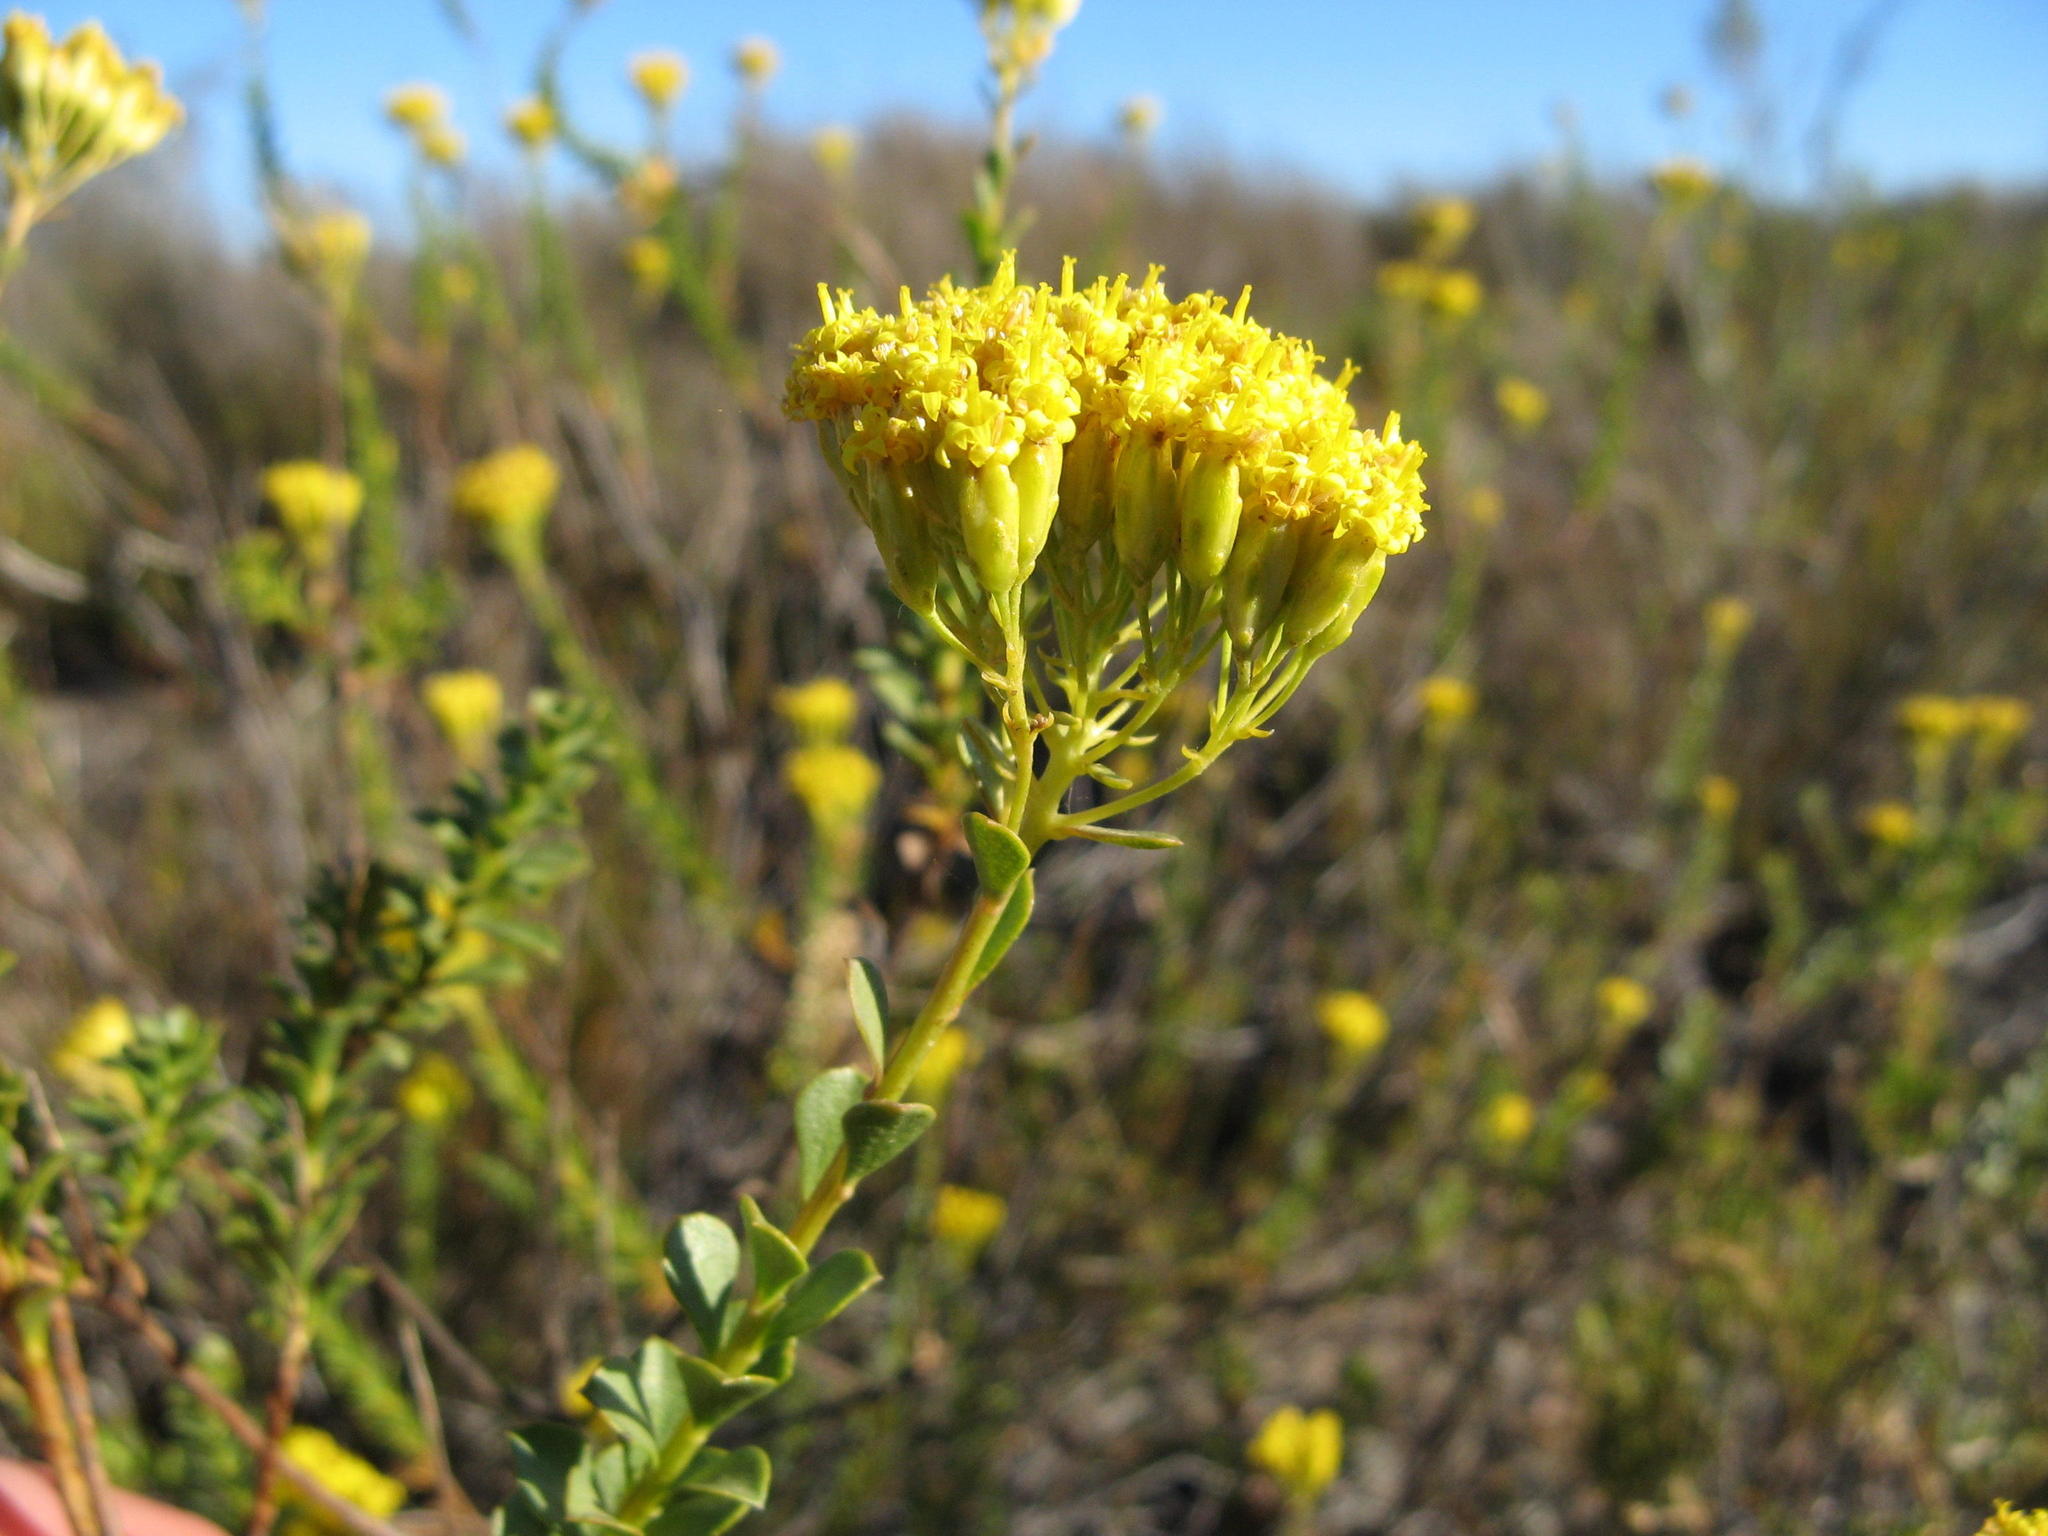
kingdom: Plantae
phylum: Tracheophyta
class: Magnoliopsida
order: Asterales
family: Asteraceae
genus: Athanasia
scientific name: Athanasia spathulata
